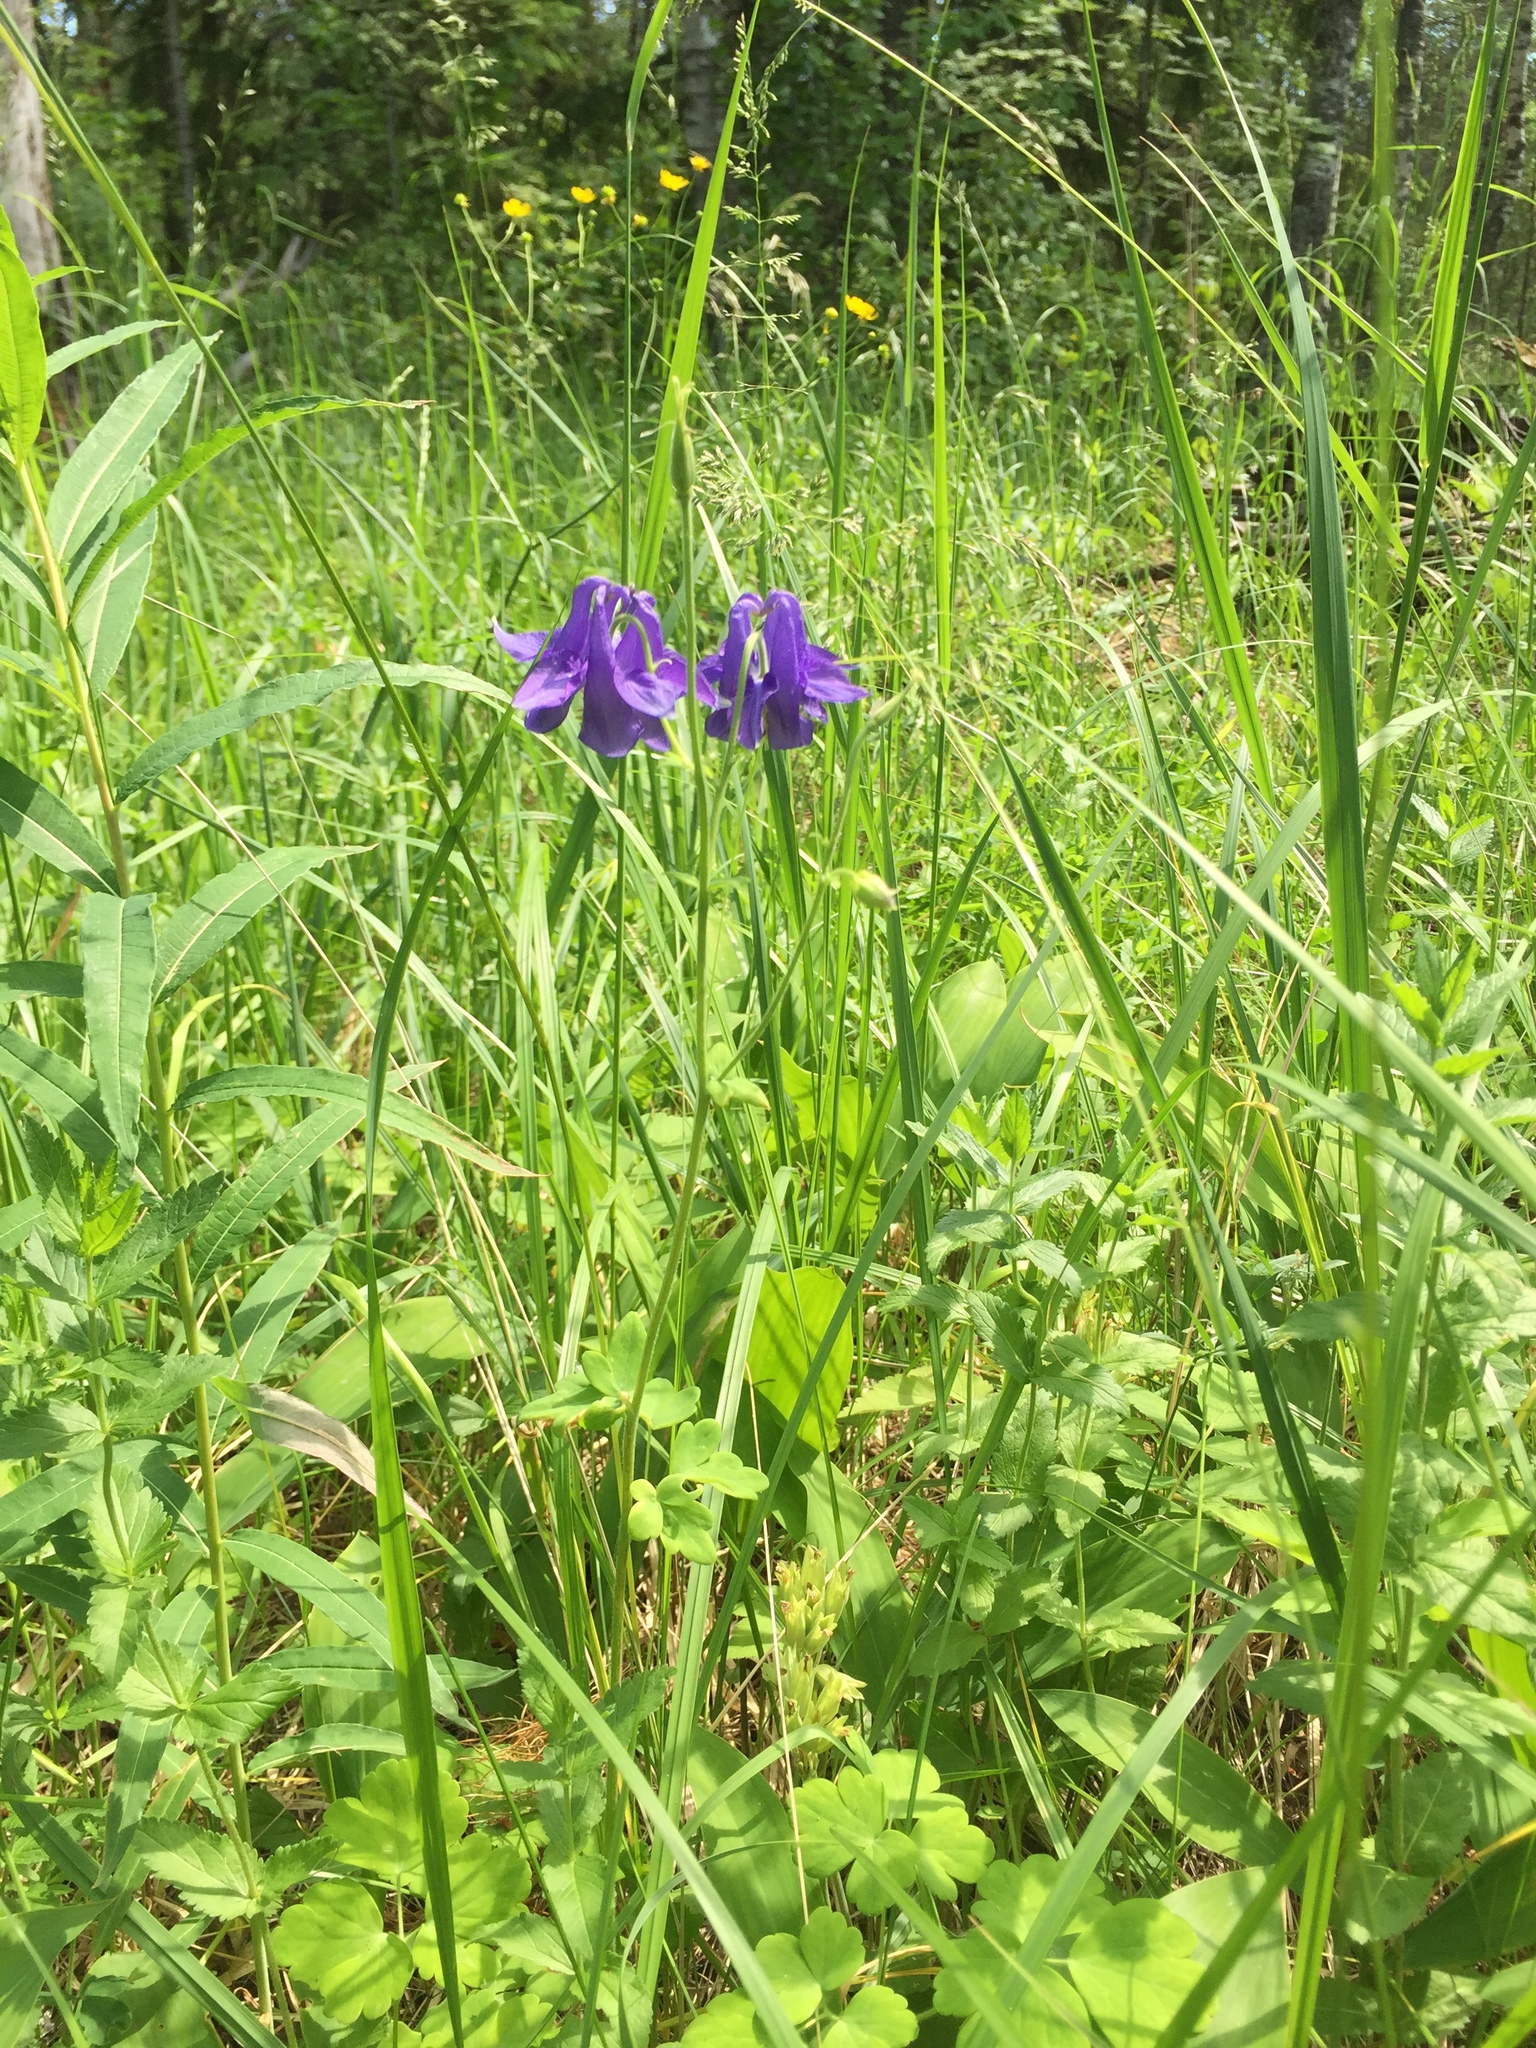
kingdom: Plantae
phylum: Tracheophyta
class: Magnoliopsida
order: Ranunculales
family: Ranunculaceae
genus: Aquilegia
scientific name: Aquilegia vulgaris
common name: Columbine
